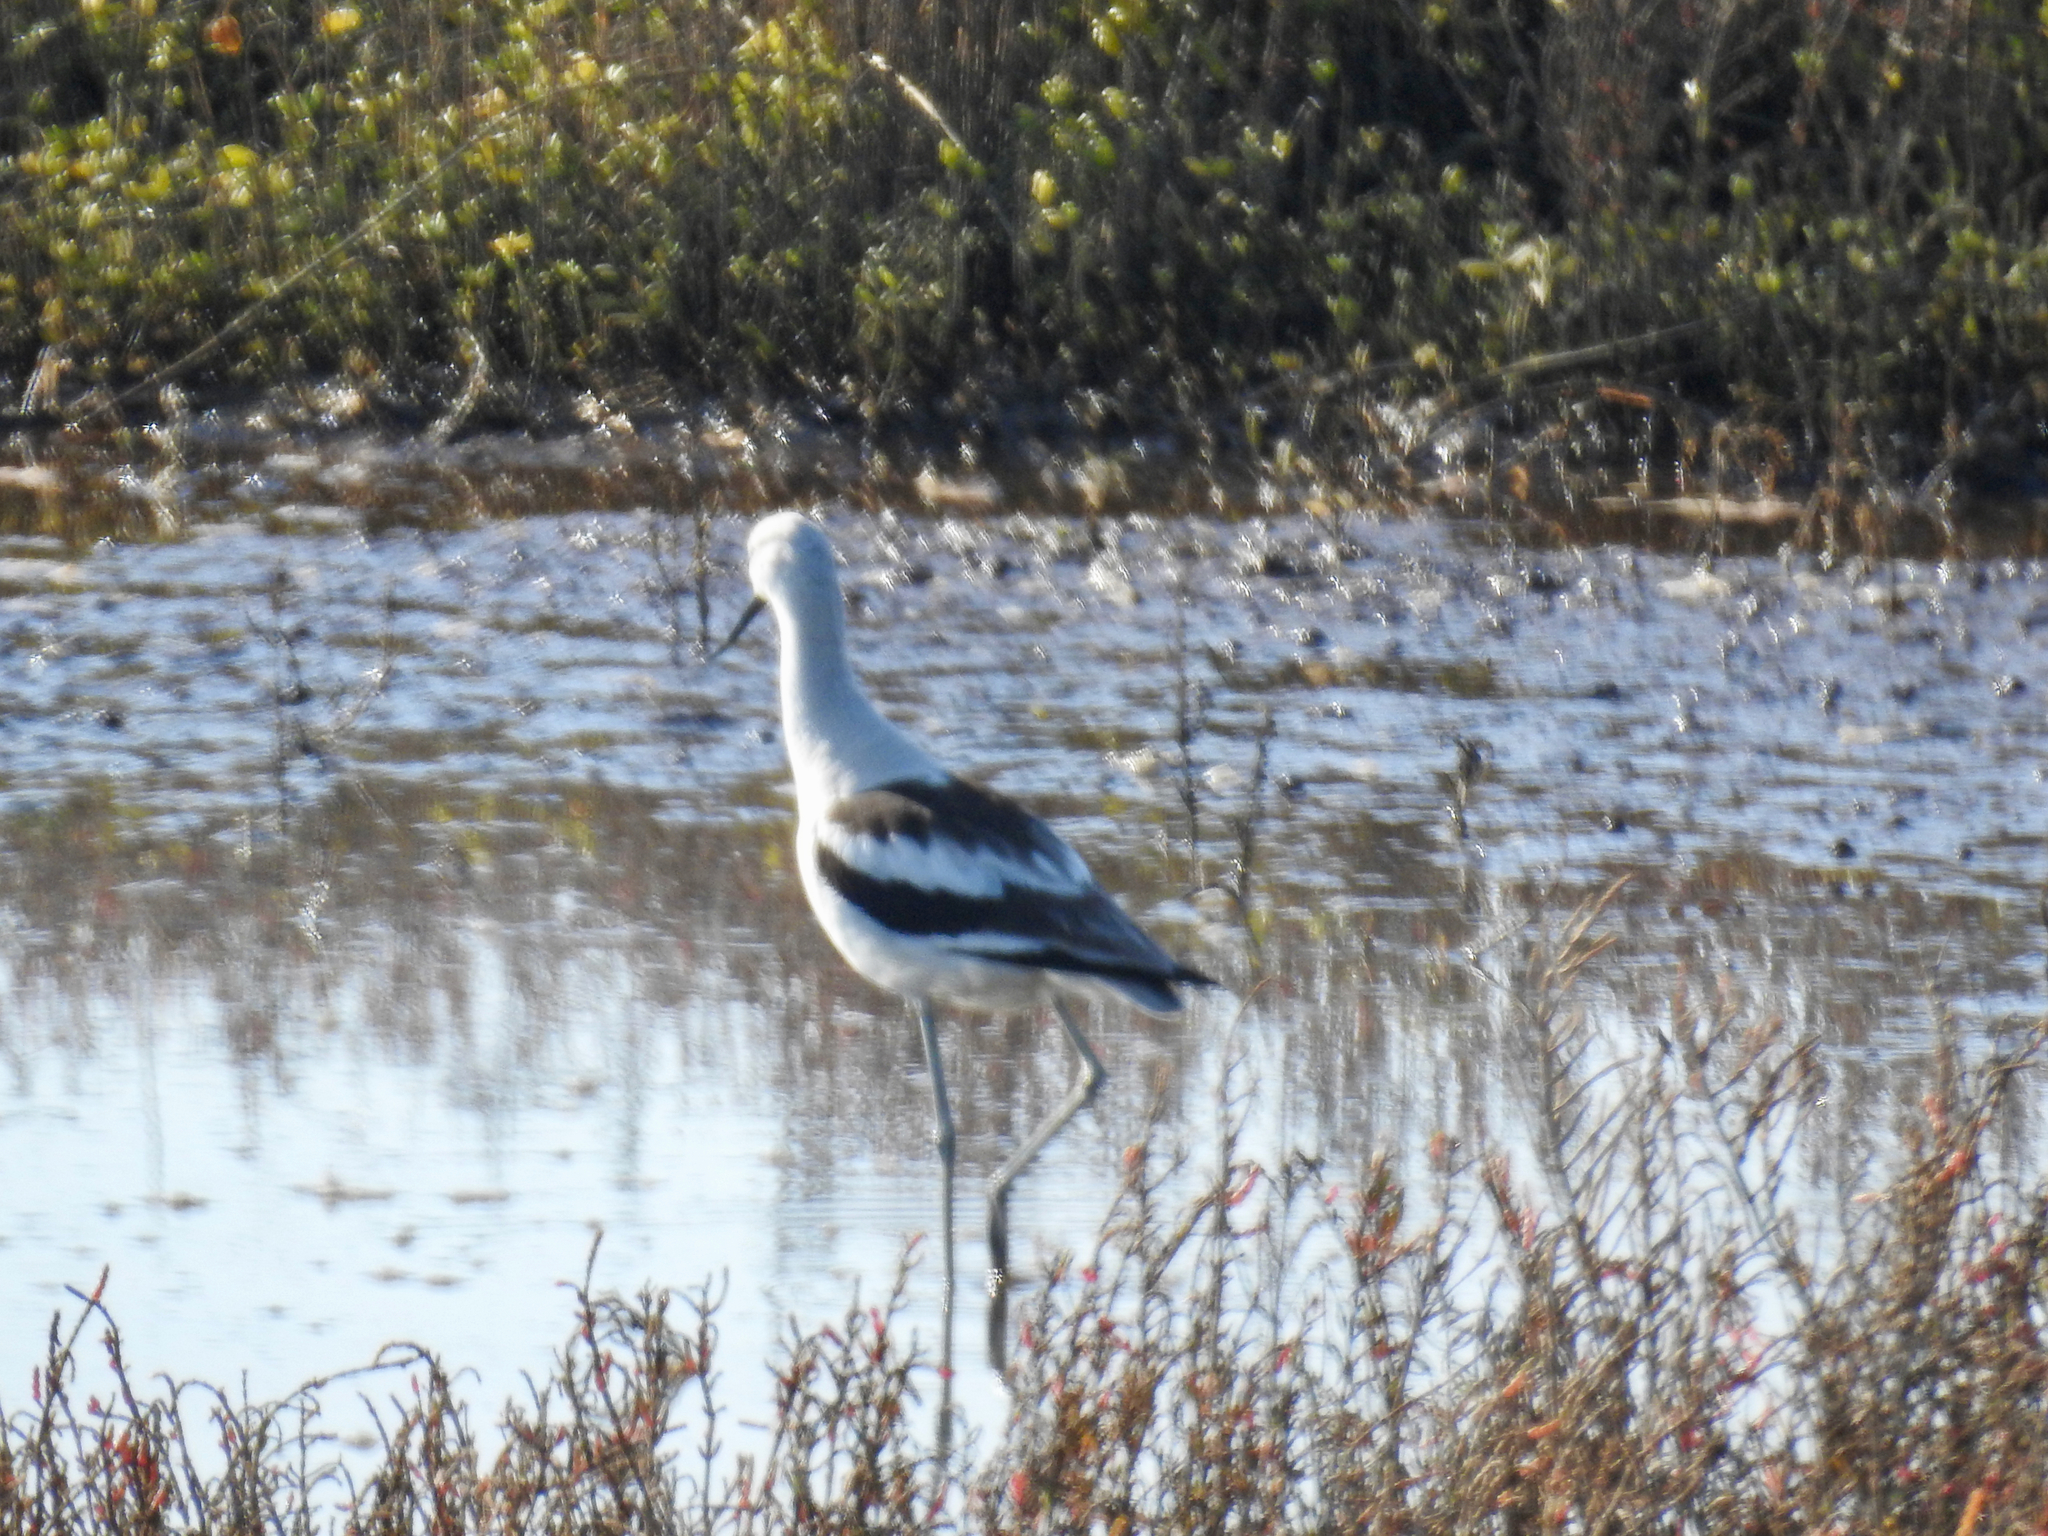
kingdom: Animalia
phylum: Chordata
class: Aves
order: Charadriiformes
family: Recurvirostridae
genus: Recurvirostra
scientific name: Recurvirostra americana
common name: American avocet
